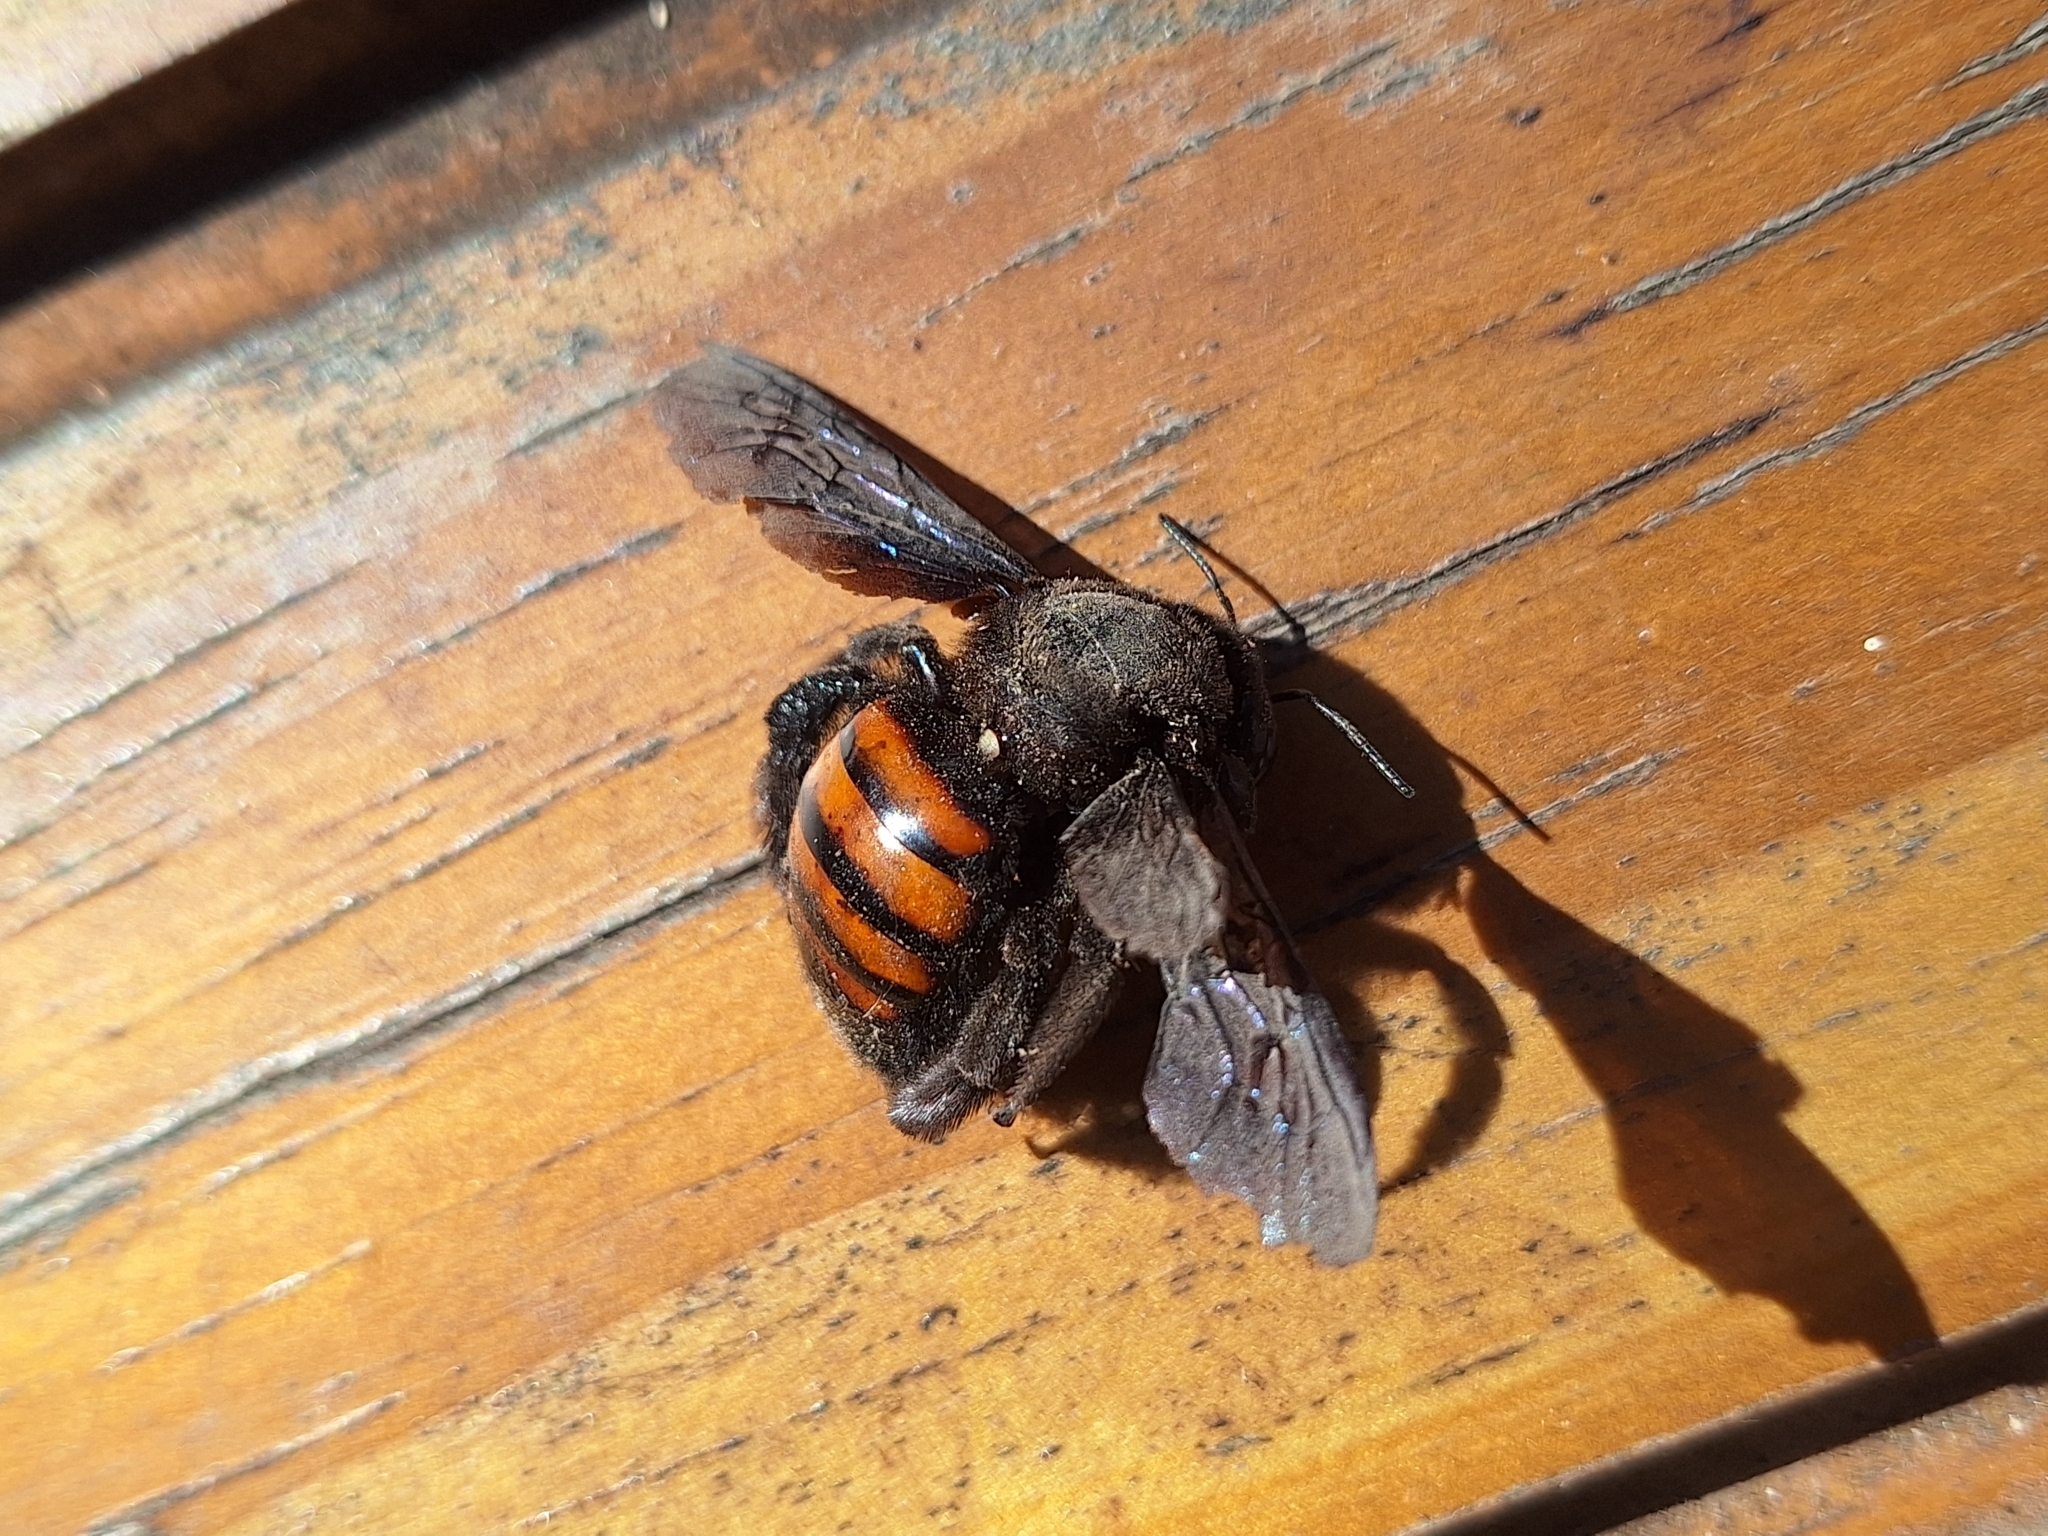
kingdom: Animalia
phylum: Arthropoda
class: Insecta
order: Hymenoptera
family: Apidae
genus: Xylocopa
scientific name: Xylocopa frontalis
